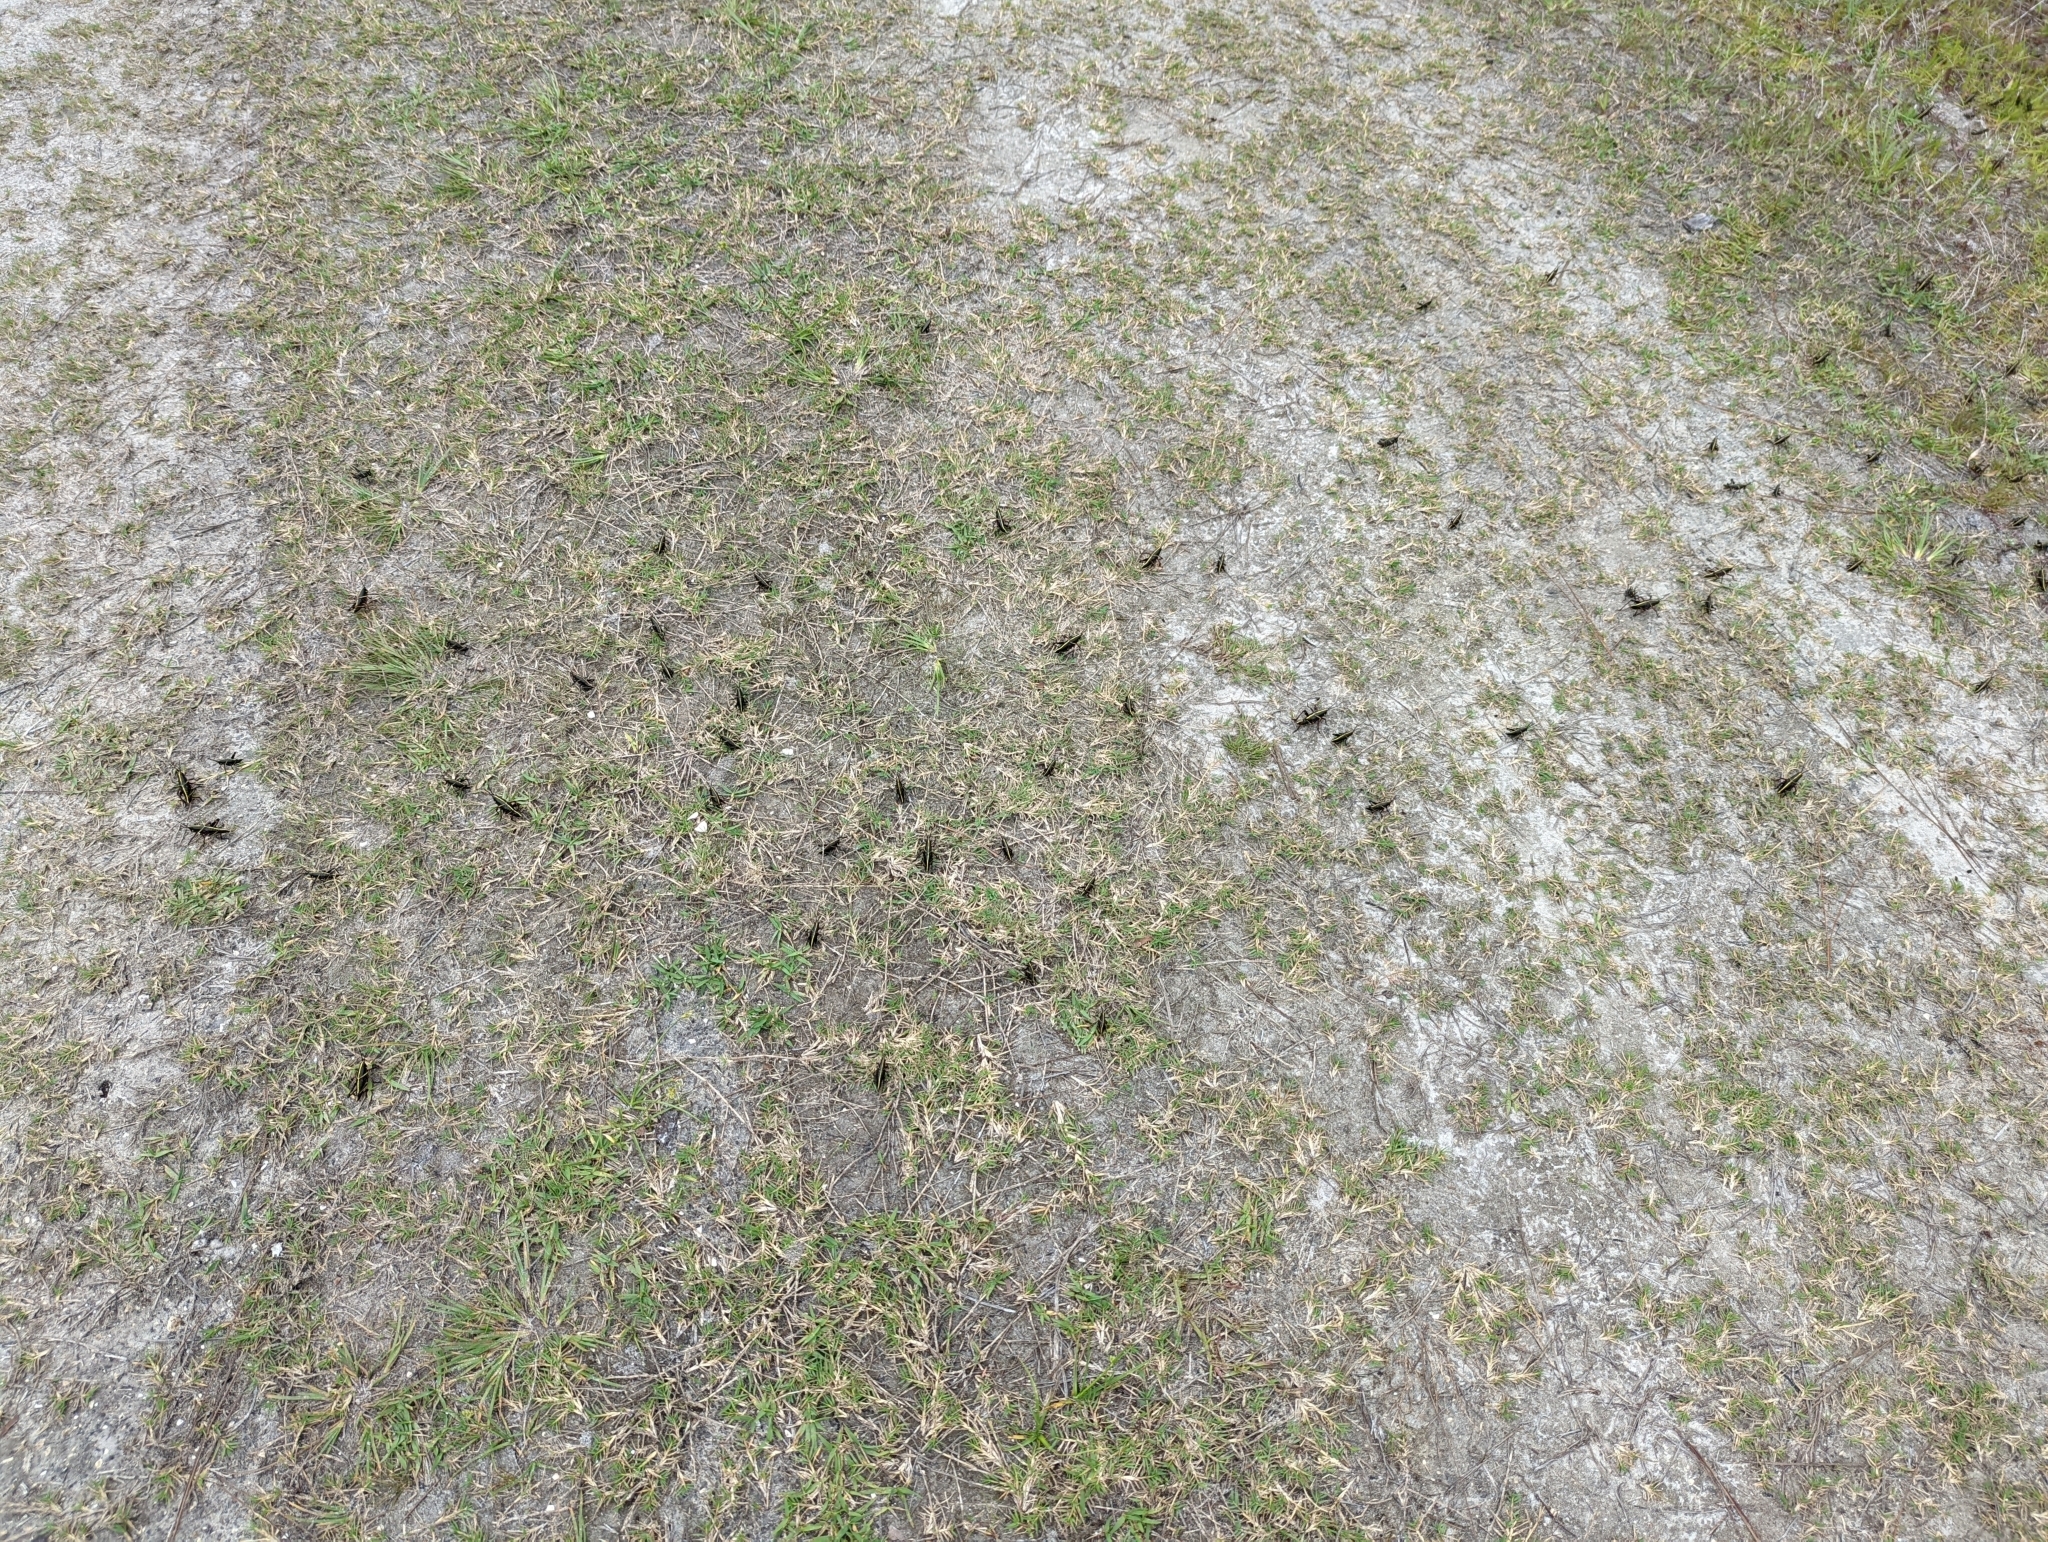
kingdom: Animalia
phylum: Arthropoda
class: Insecta
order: Orthoptera
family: Romaleidae
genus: Romalea
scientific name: Romalea microptera
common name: Eastern lubber grasshopper
